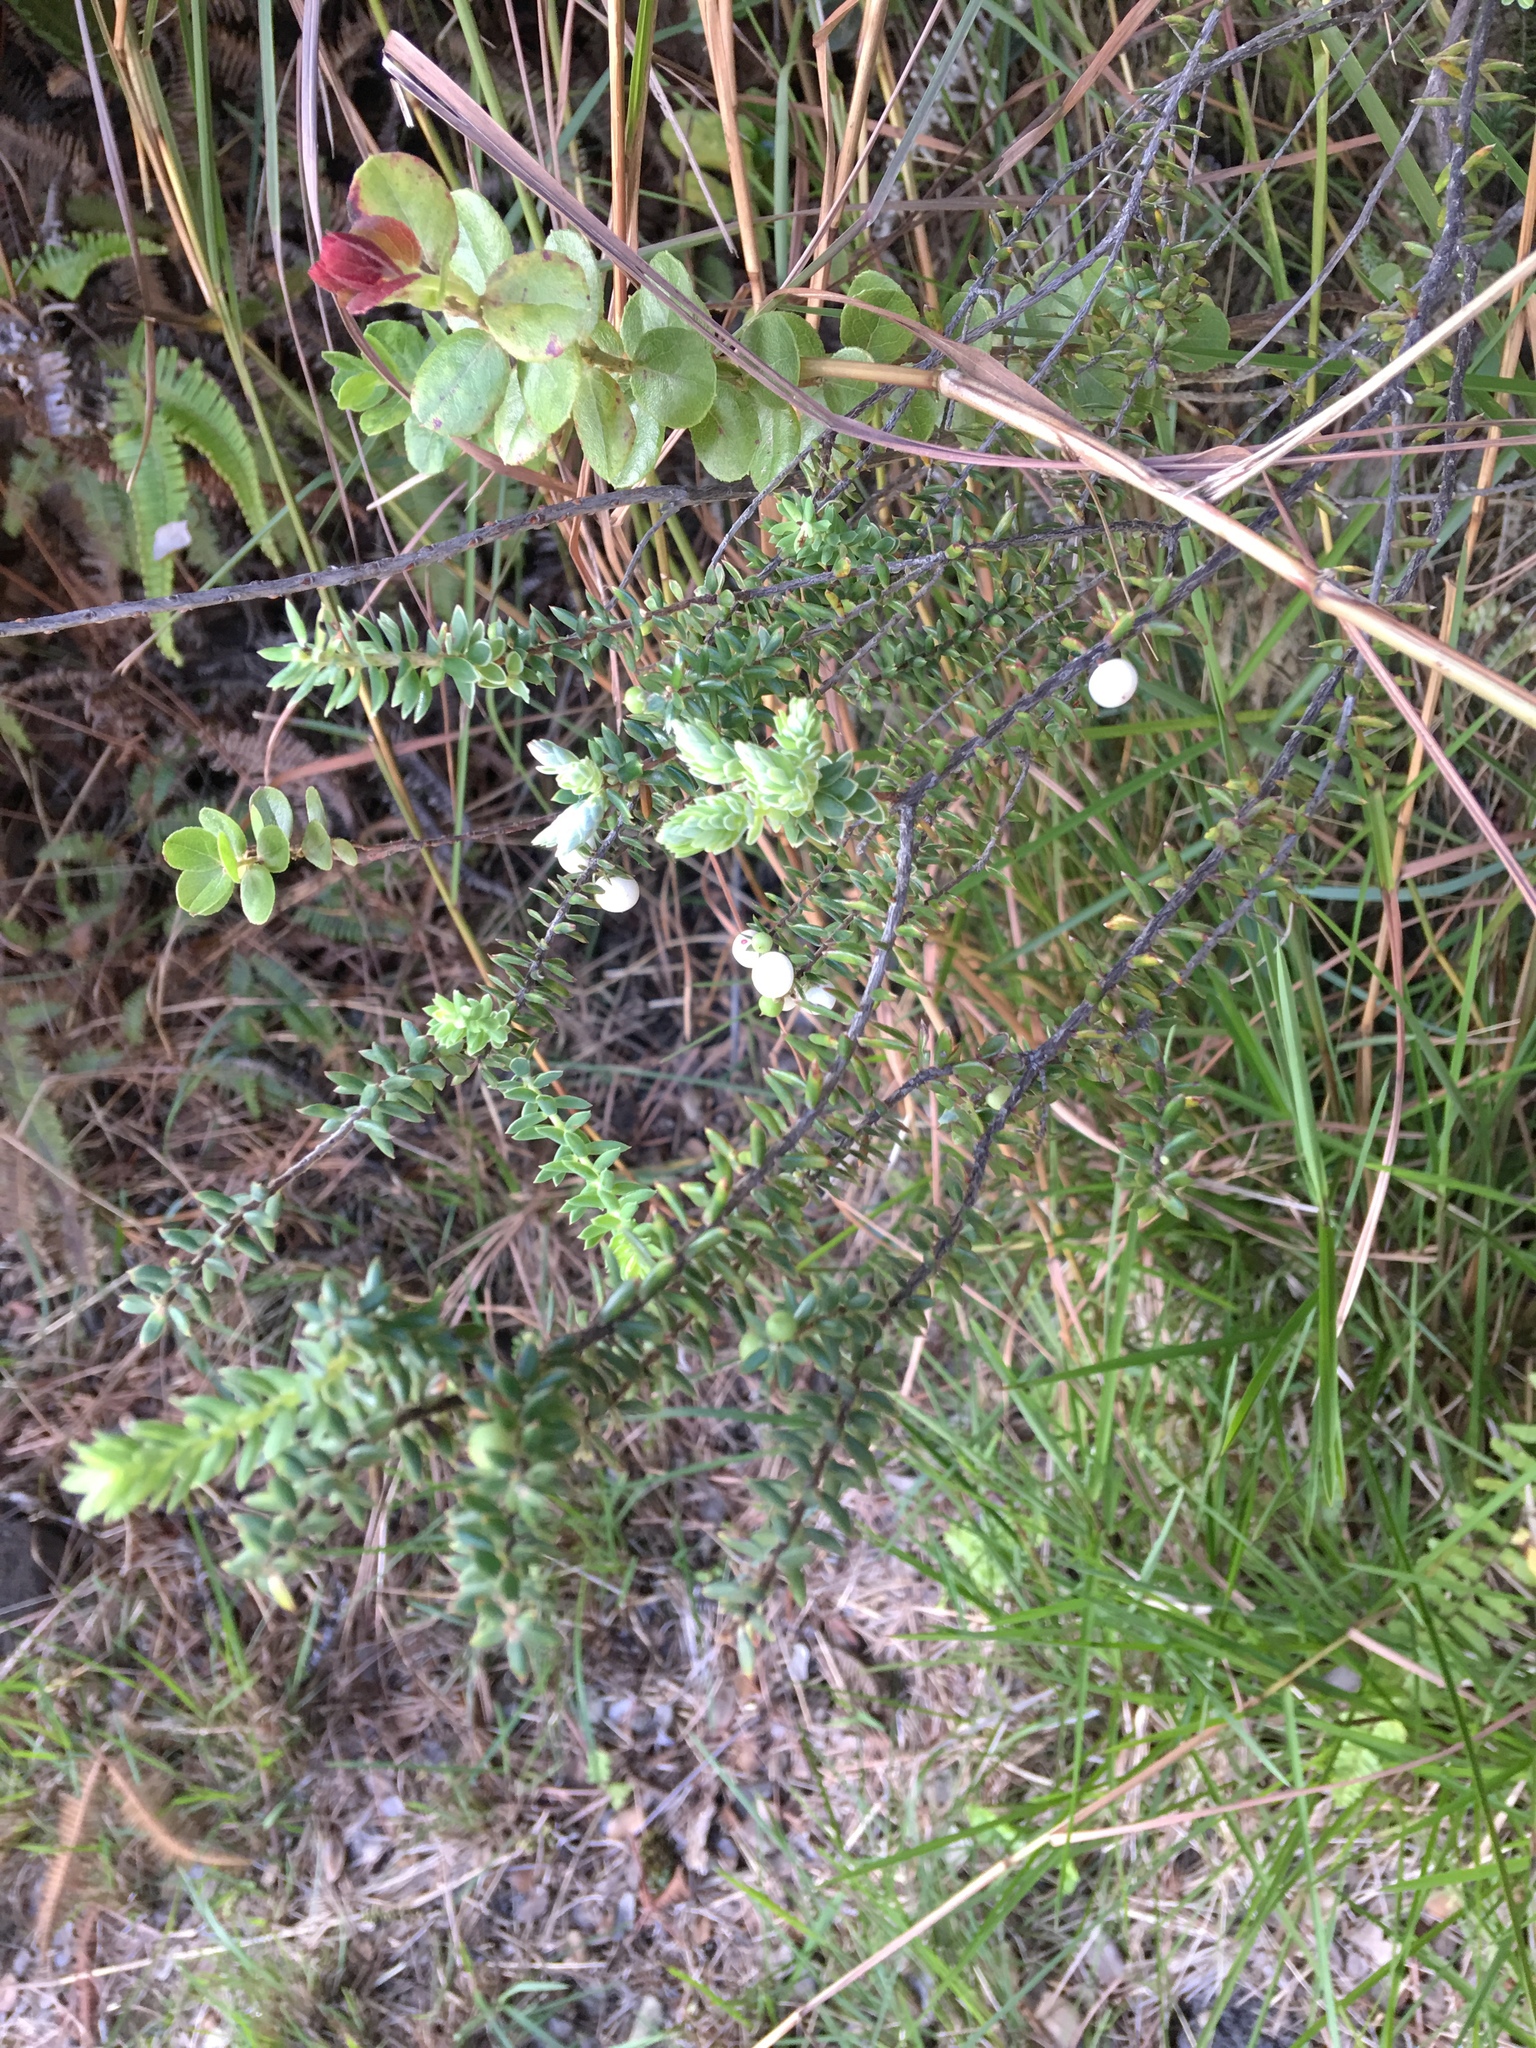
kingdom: Plantae
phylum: Tracheophyta
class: Magnoliopsida
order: Ericales
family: Ericaceae
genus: Leptecophylla
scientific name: Leptecophylla tameiameiae
